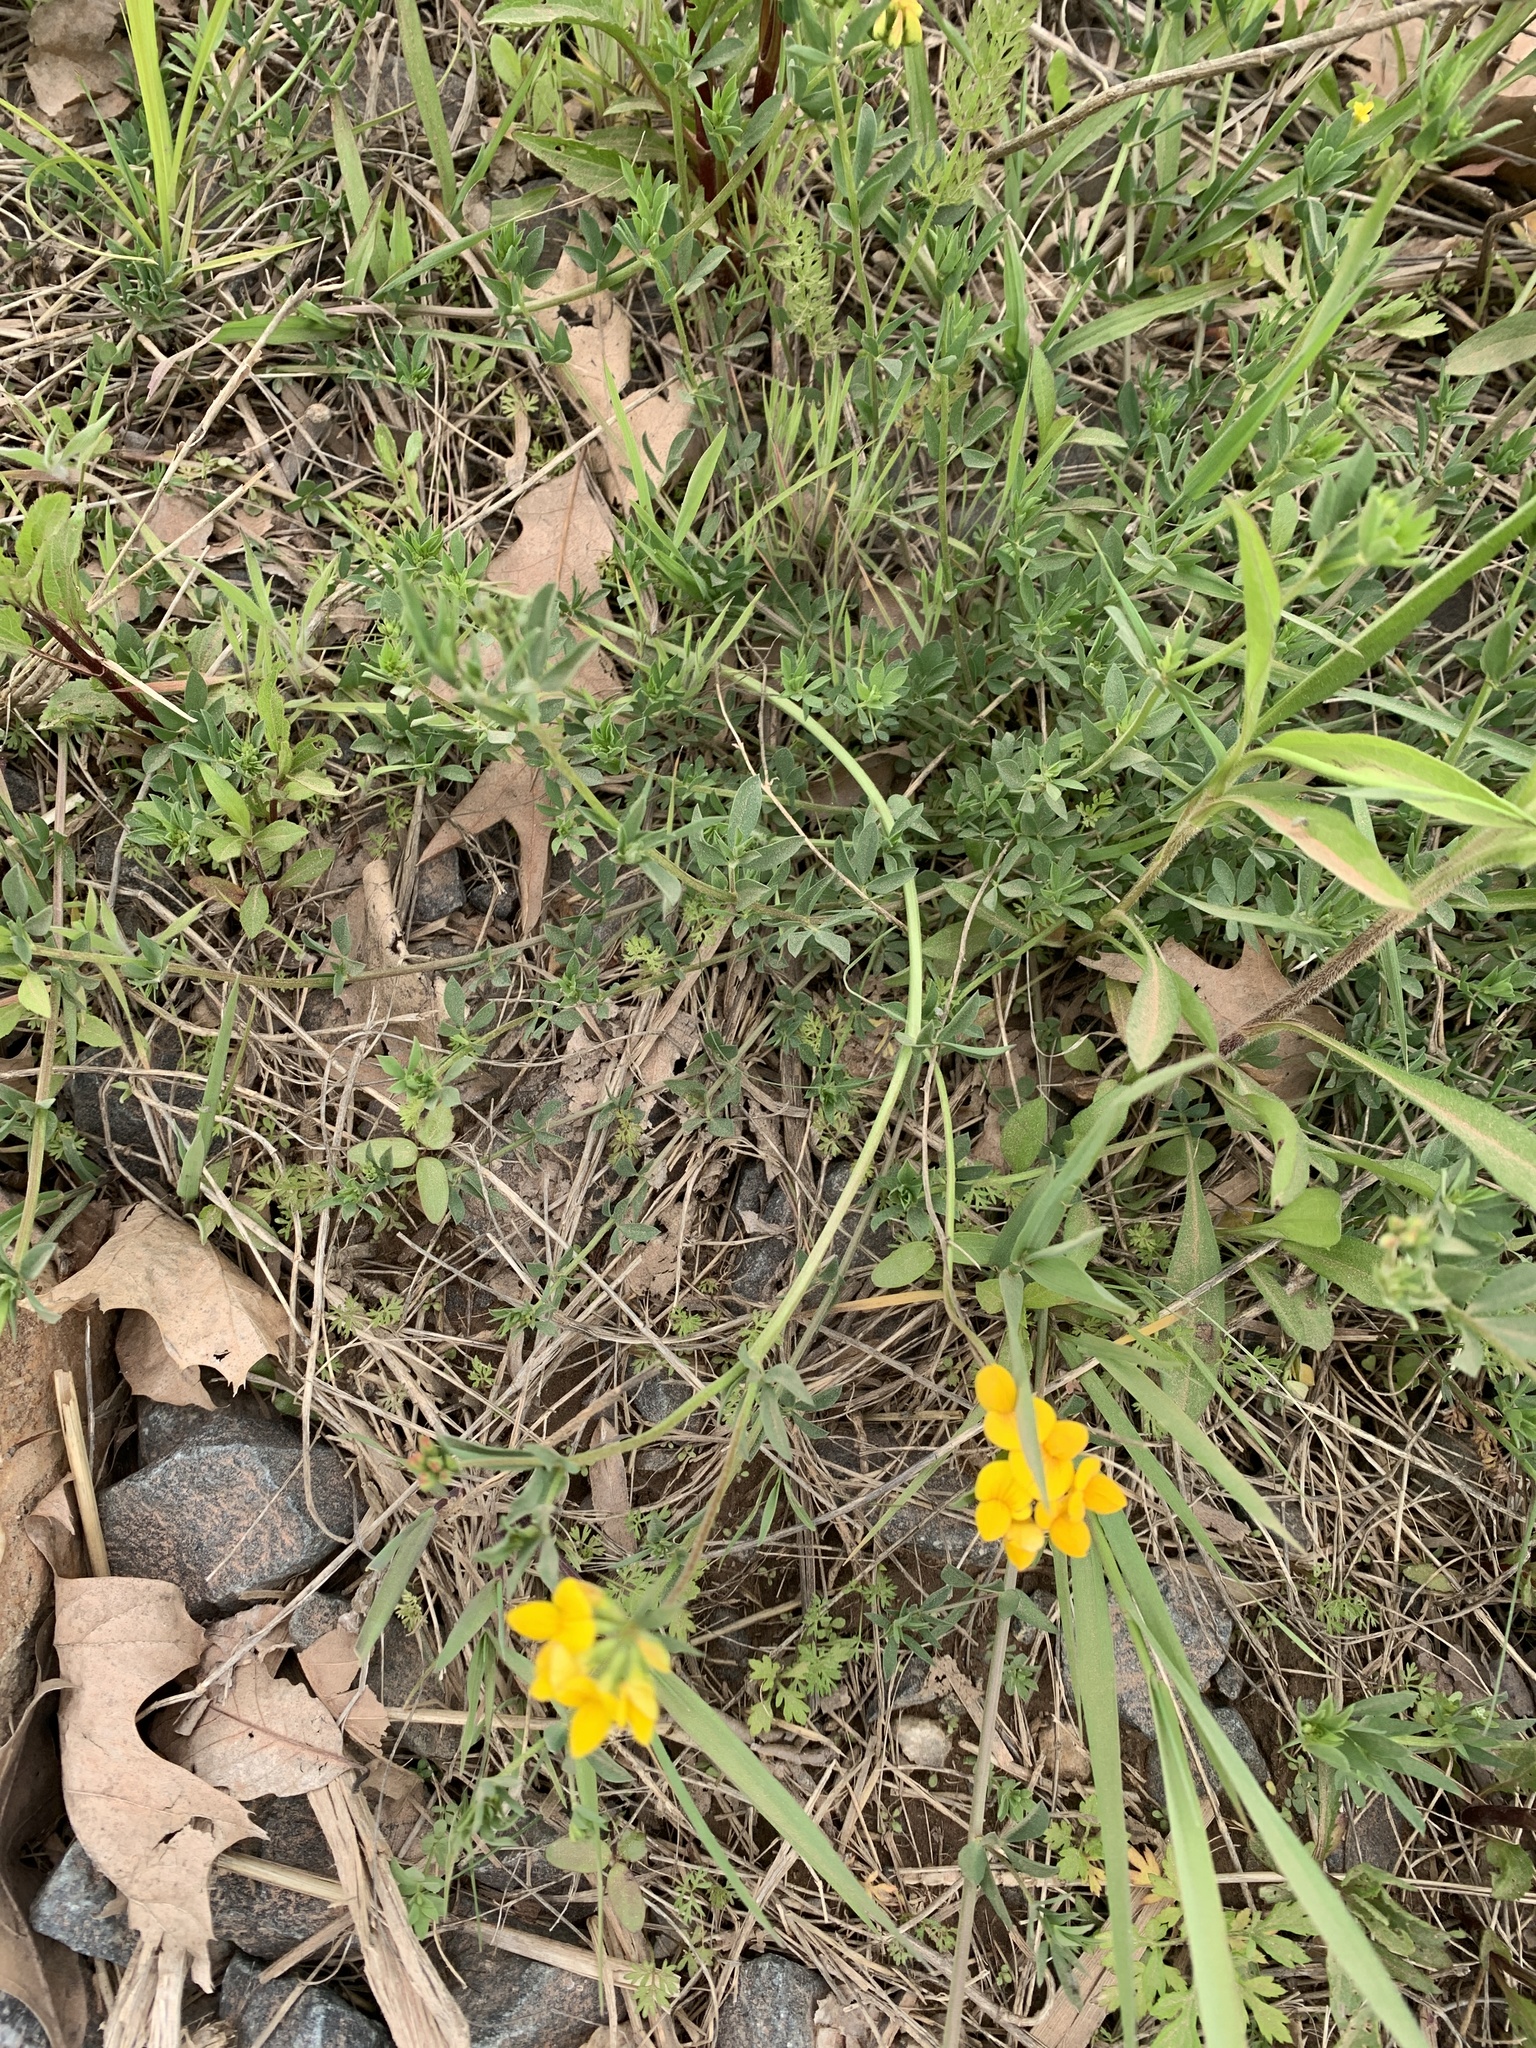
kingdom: Plantae
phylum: Tracheophyta
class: Magnoliopsida
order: Fabales
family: Fabaceae
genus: Lotus
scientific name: Lotus corniculatus
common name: Common bird's-foot-trefoil
